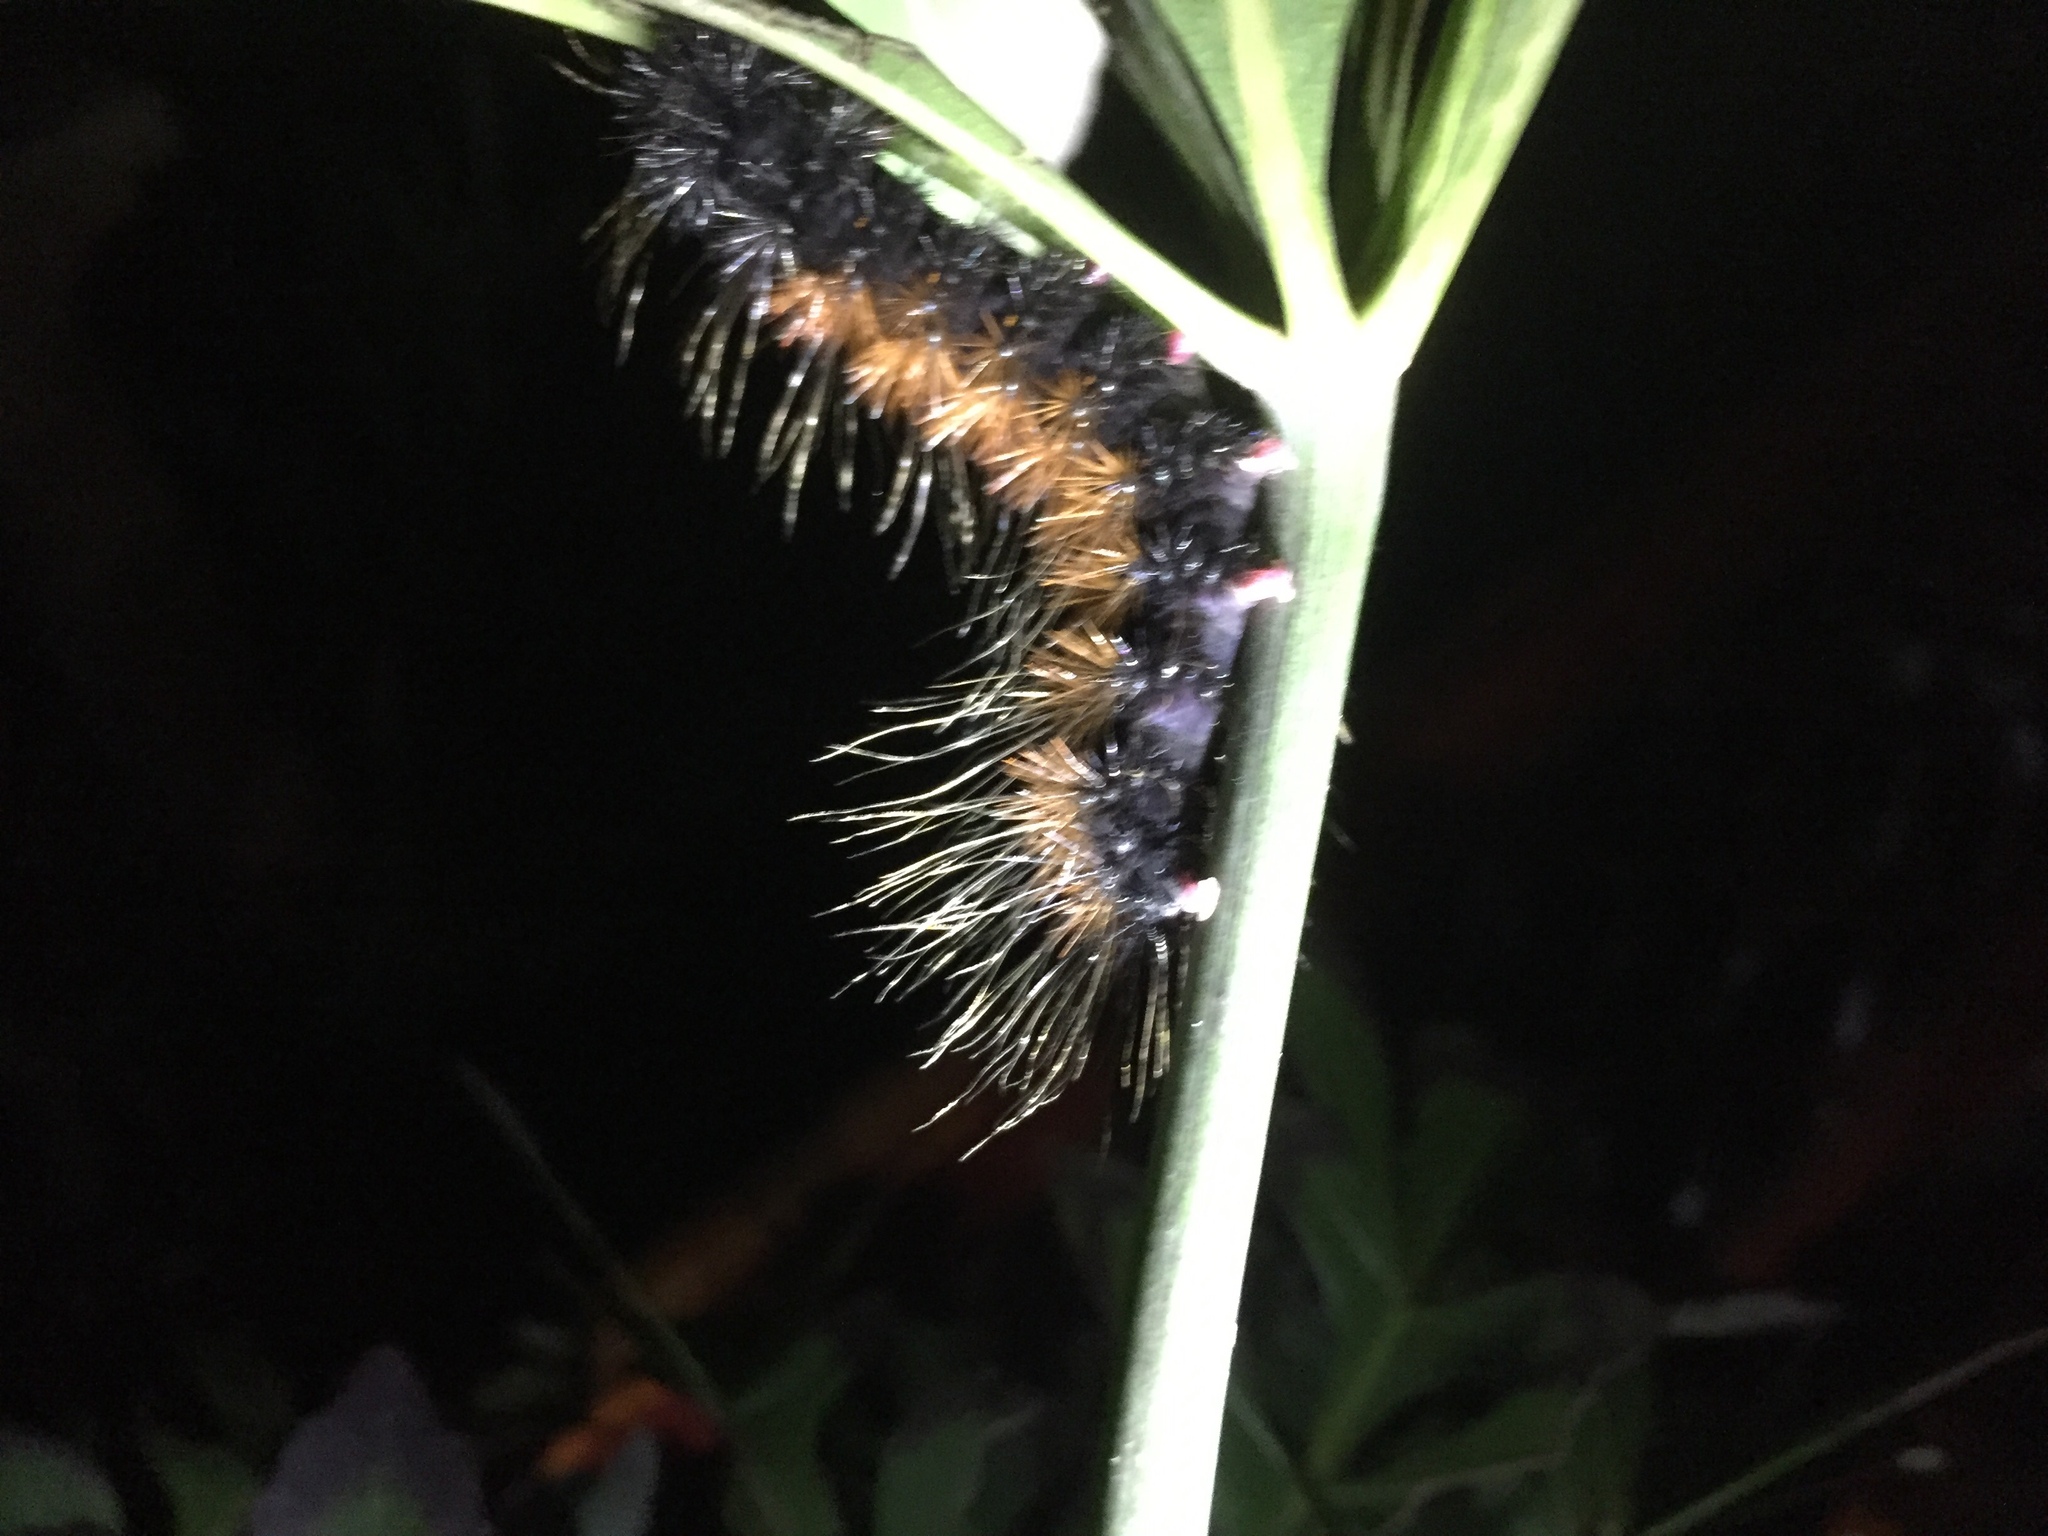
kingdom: Animalia
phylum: Arthropoda
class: Insecta
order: Lepidoptera
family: Erebidae
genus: Rhodogastria
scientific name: Rhodogastria amasis
